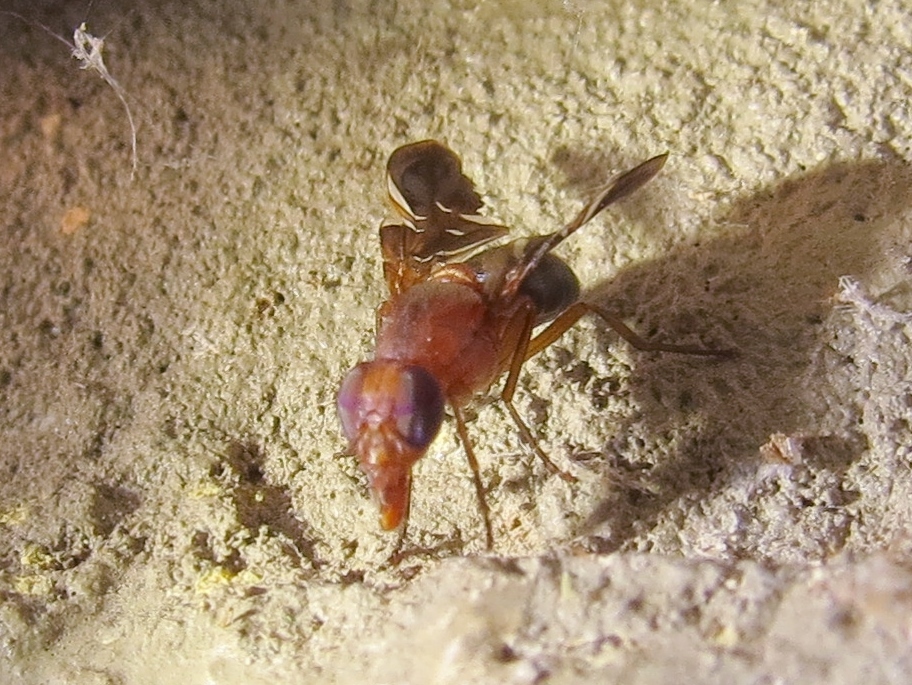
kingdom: Animalia
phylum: Arthropoda
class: Insecta
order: Diptera
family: Ulidiidae
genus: Delphinia
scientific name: Delphinia picta
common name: Common picture-winged fly
